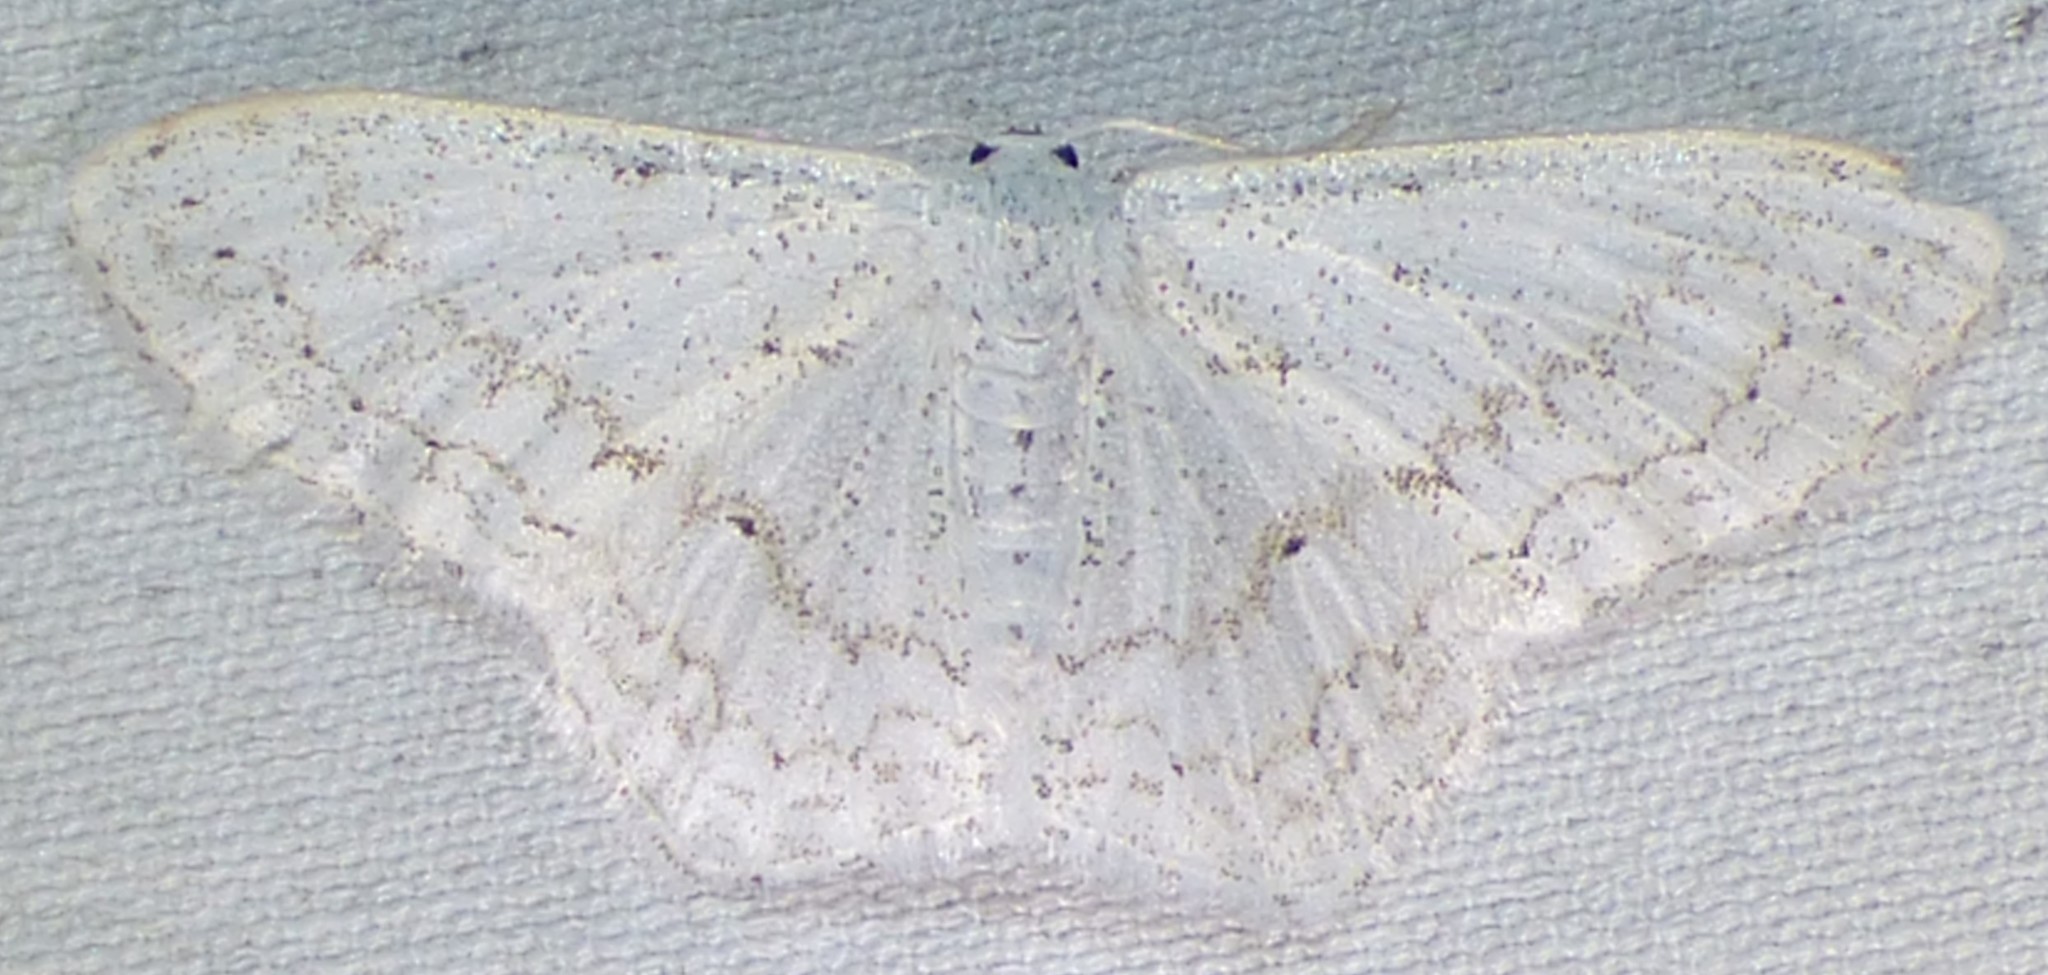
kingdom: Animalia
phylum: Arthropoda
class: Insecta
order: Lepidoptera
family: Geometridae
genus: Idaea
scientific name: Idaea tacturata
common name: Dot-lined wave
